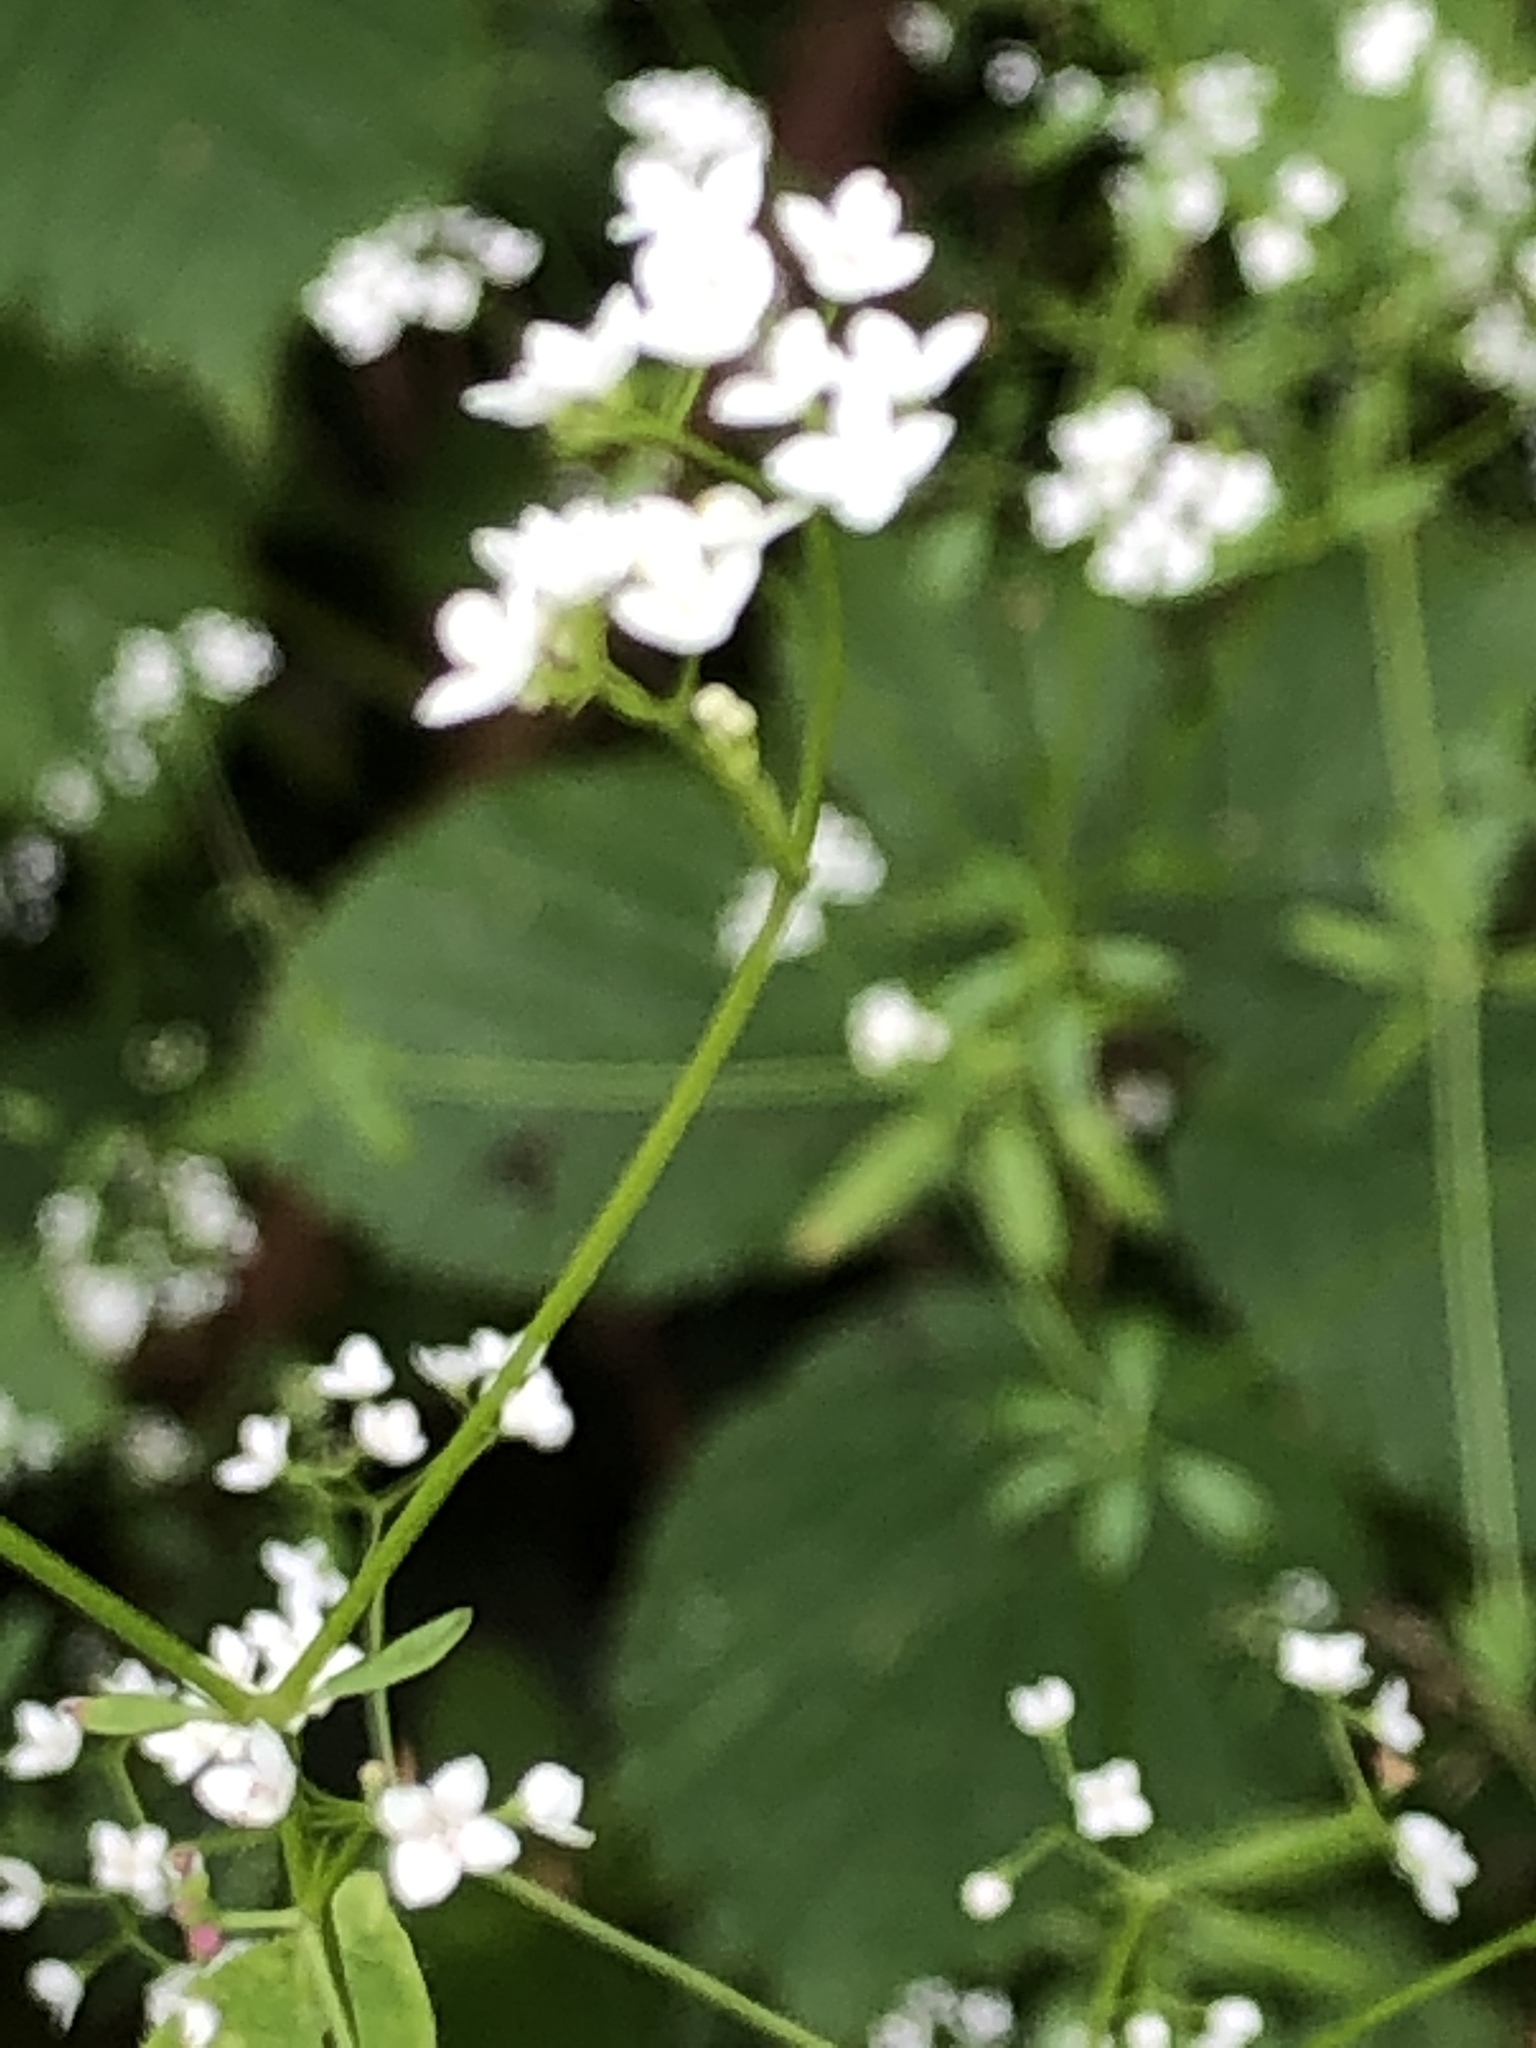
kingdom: Plantae
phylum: Tracheophyta
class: Magnoliopsida
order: Gentianales
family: Rubiaceae
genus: Galium
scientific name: Galium palustre
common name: Common marsh-bedstraw
